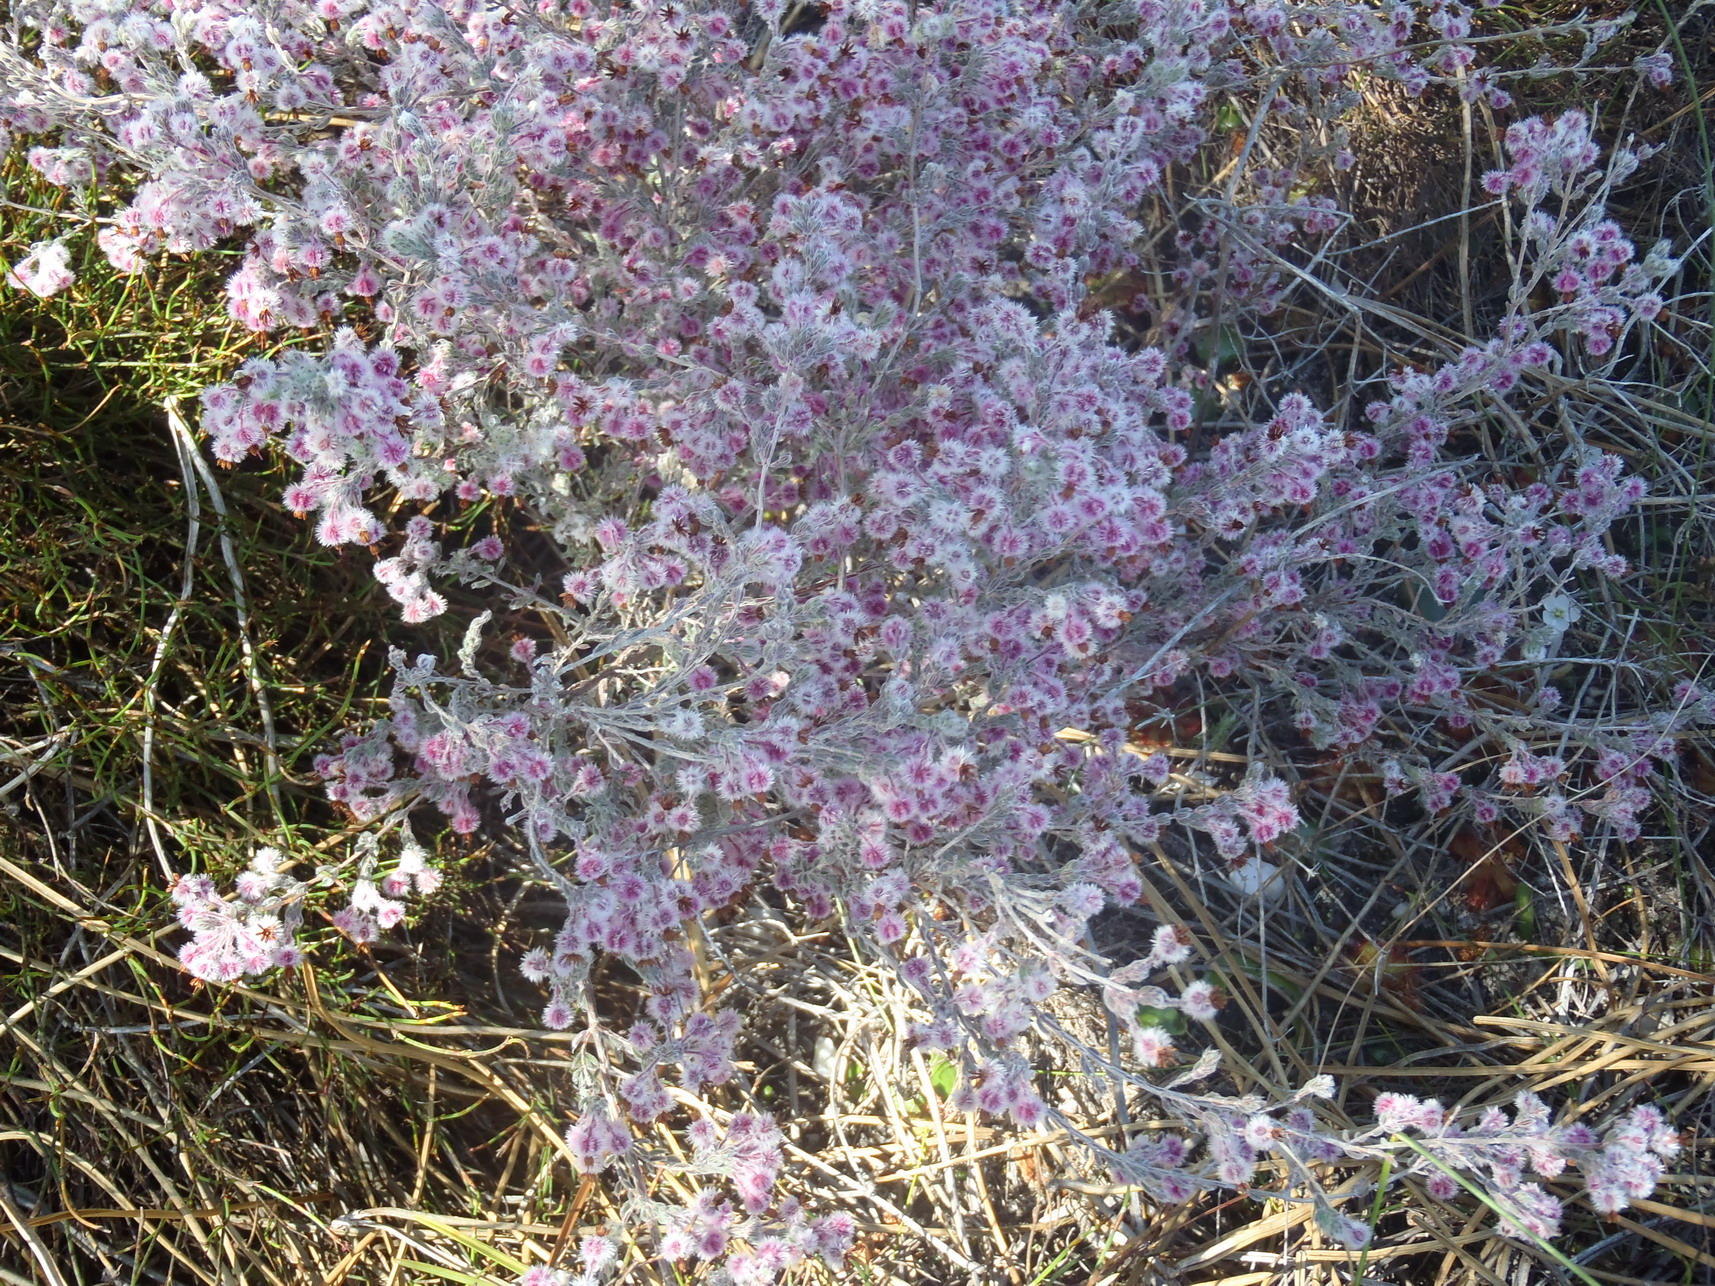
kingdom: Plantae
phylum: Tracheophyta
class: Magnoliopsida
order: Ericales
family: Ericaceae
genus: Erica
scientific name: Erica bruniades
